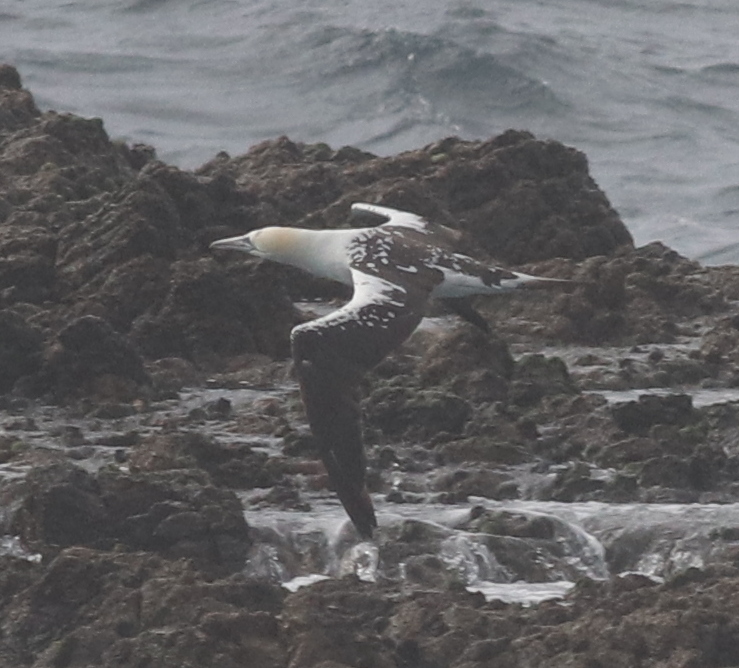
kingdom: Animalia
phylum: Chordata
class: Aves
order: Suliformes
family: Sulidae
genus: Morus
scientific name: Morus bassanus
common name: Northern gannet
